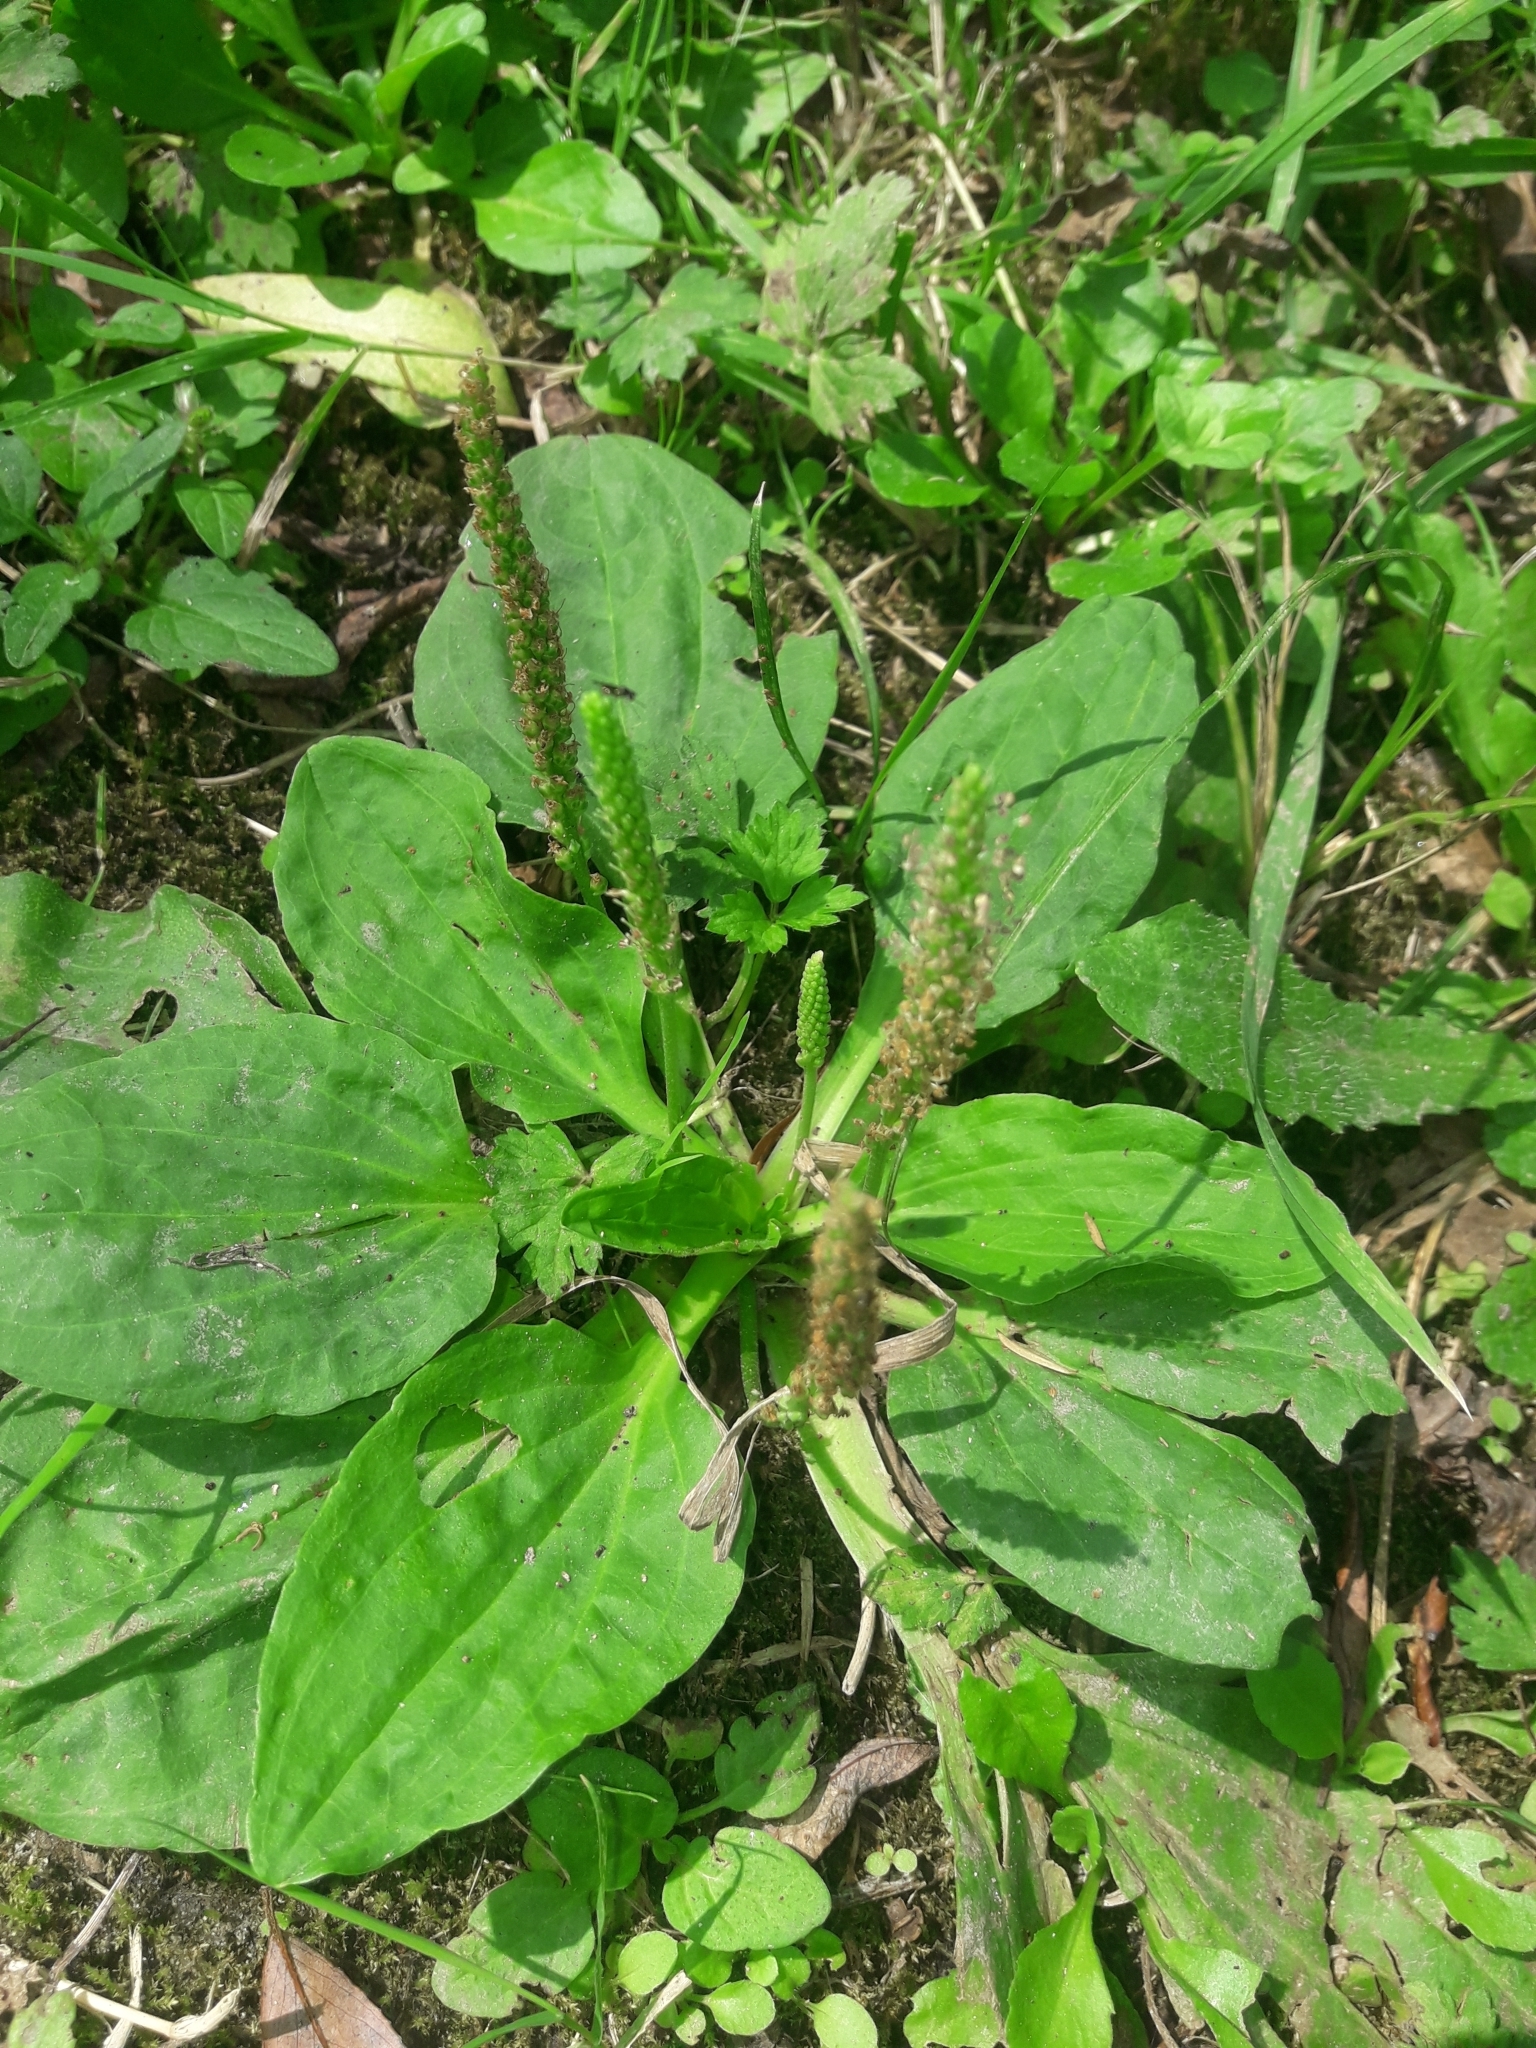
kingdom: Plantae
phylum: Tracheophyta
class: Magnoliopsida
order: Lamiales
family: Plantaginaceae
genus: Plantago
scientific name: Plantago major
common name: Common plantain
